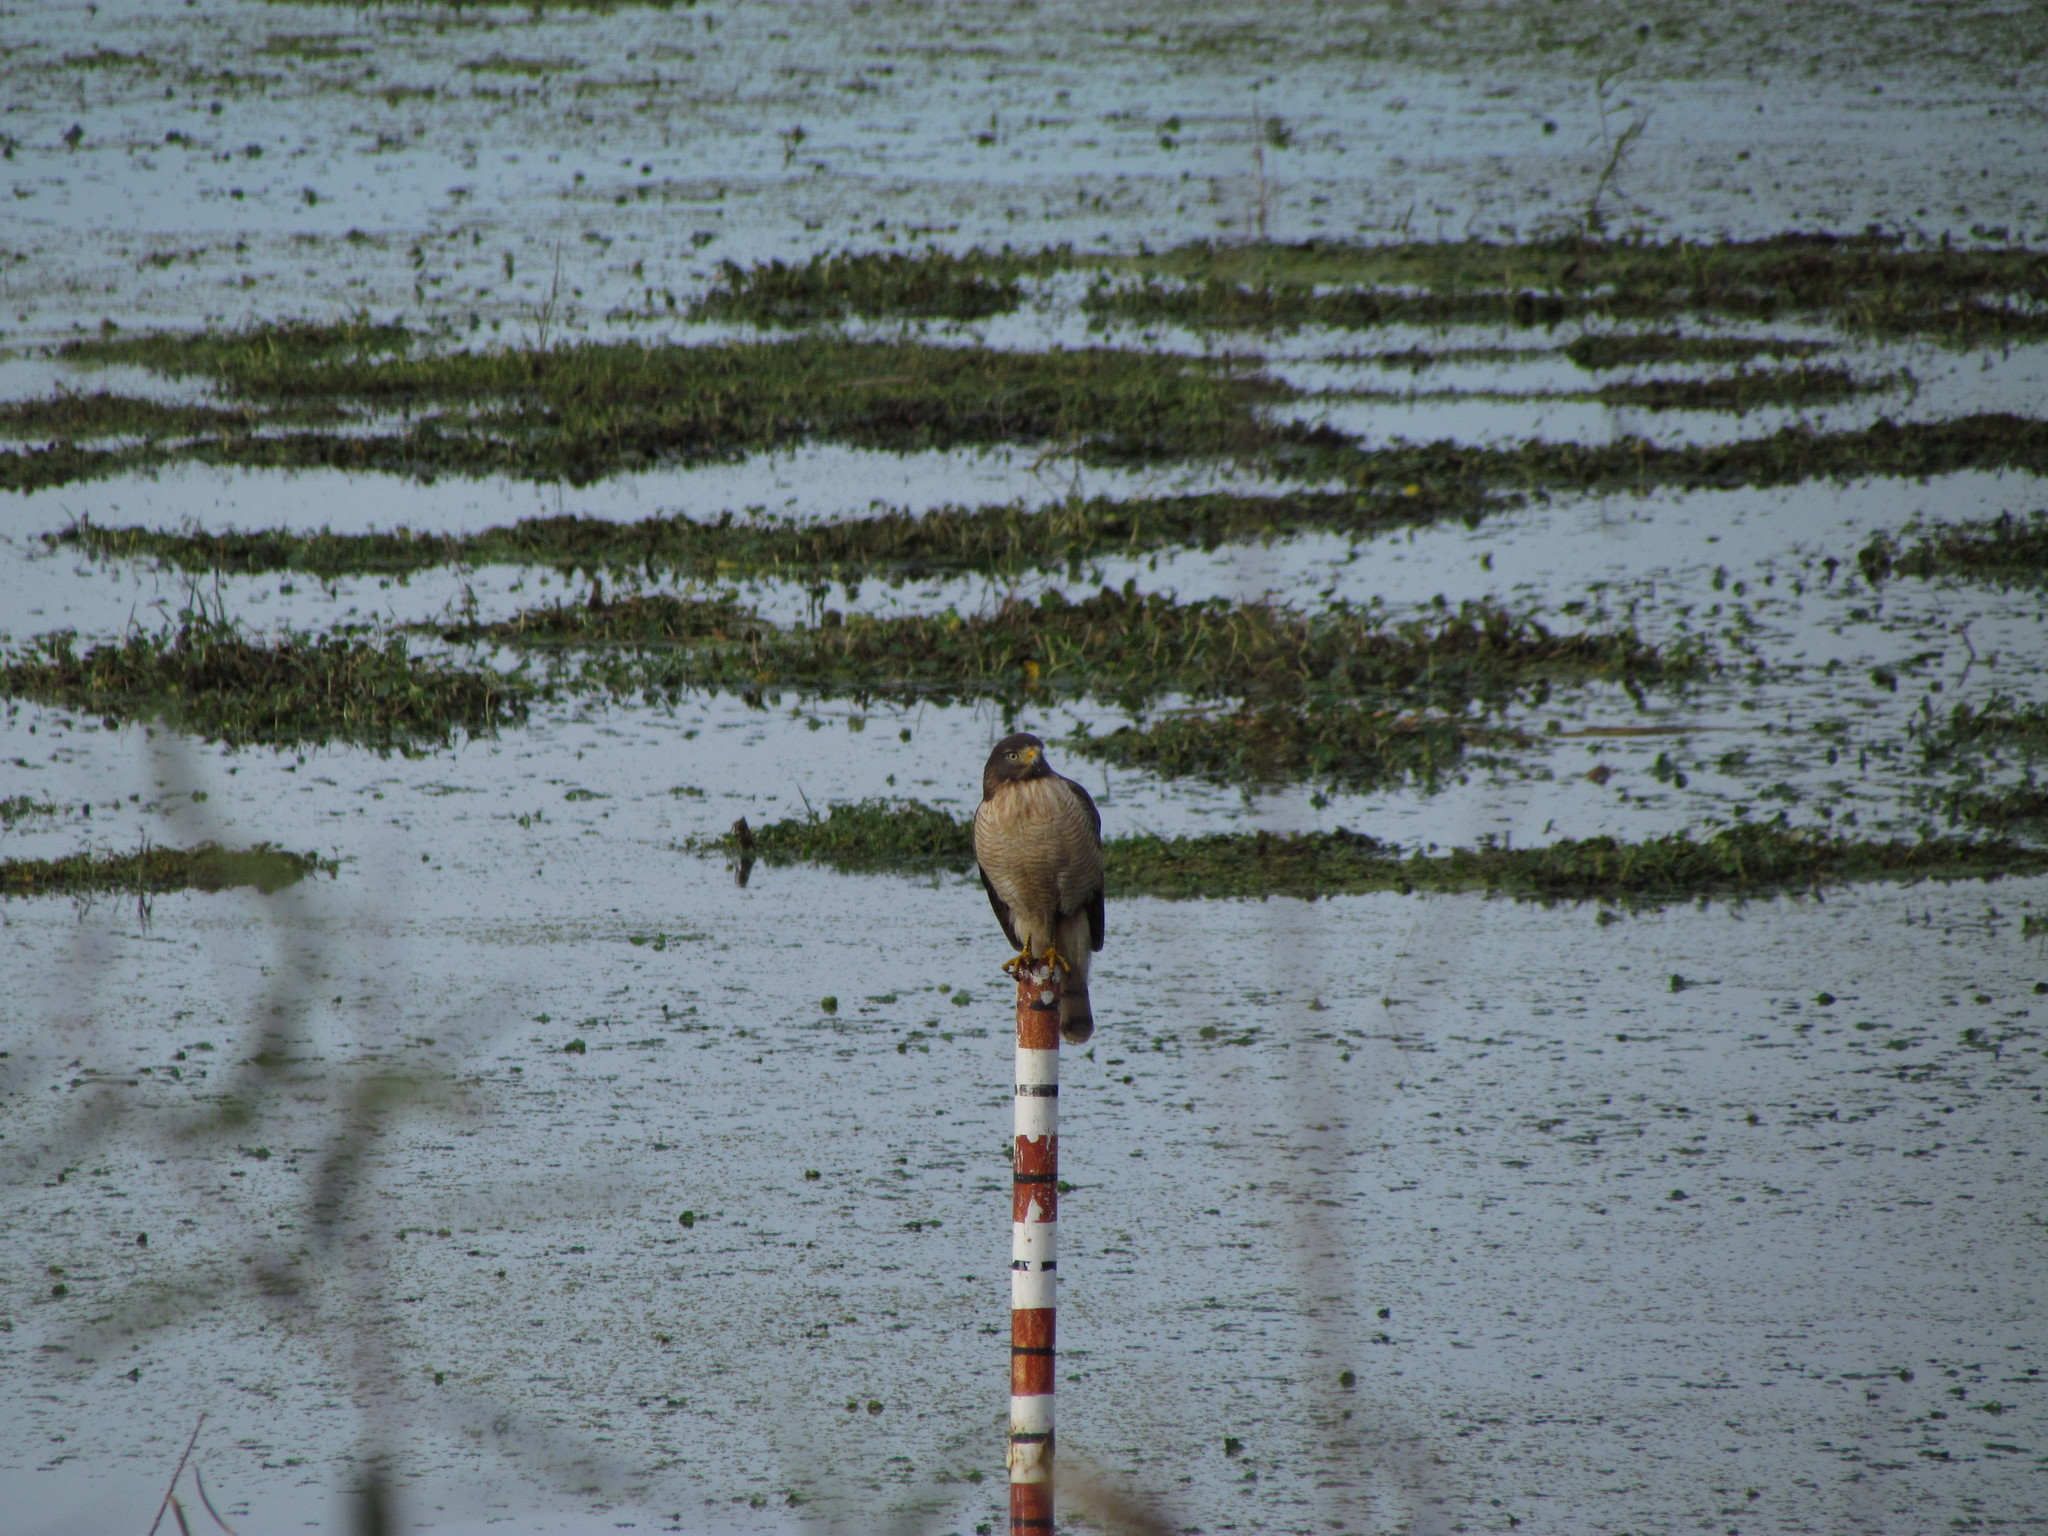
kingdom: Animalia
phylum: Chordata
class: Aves
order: Accipitriformes
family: Accipitridae
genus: Rupornis
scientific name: Rupornis magnirostris
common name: Roadside hawk
